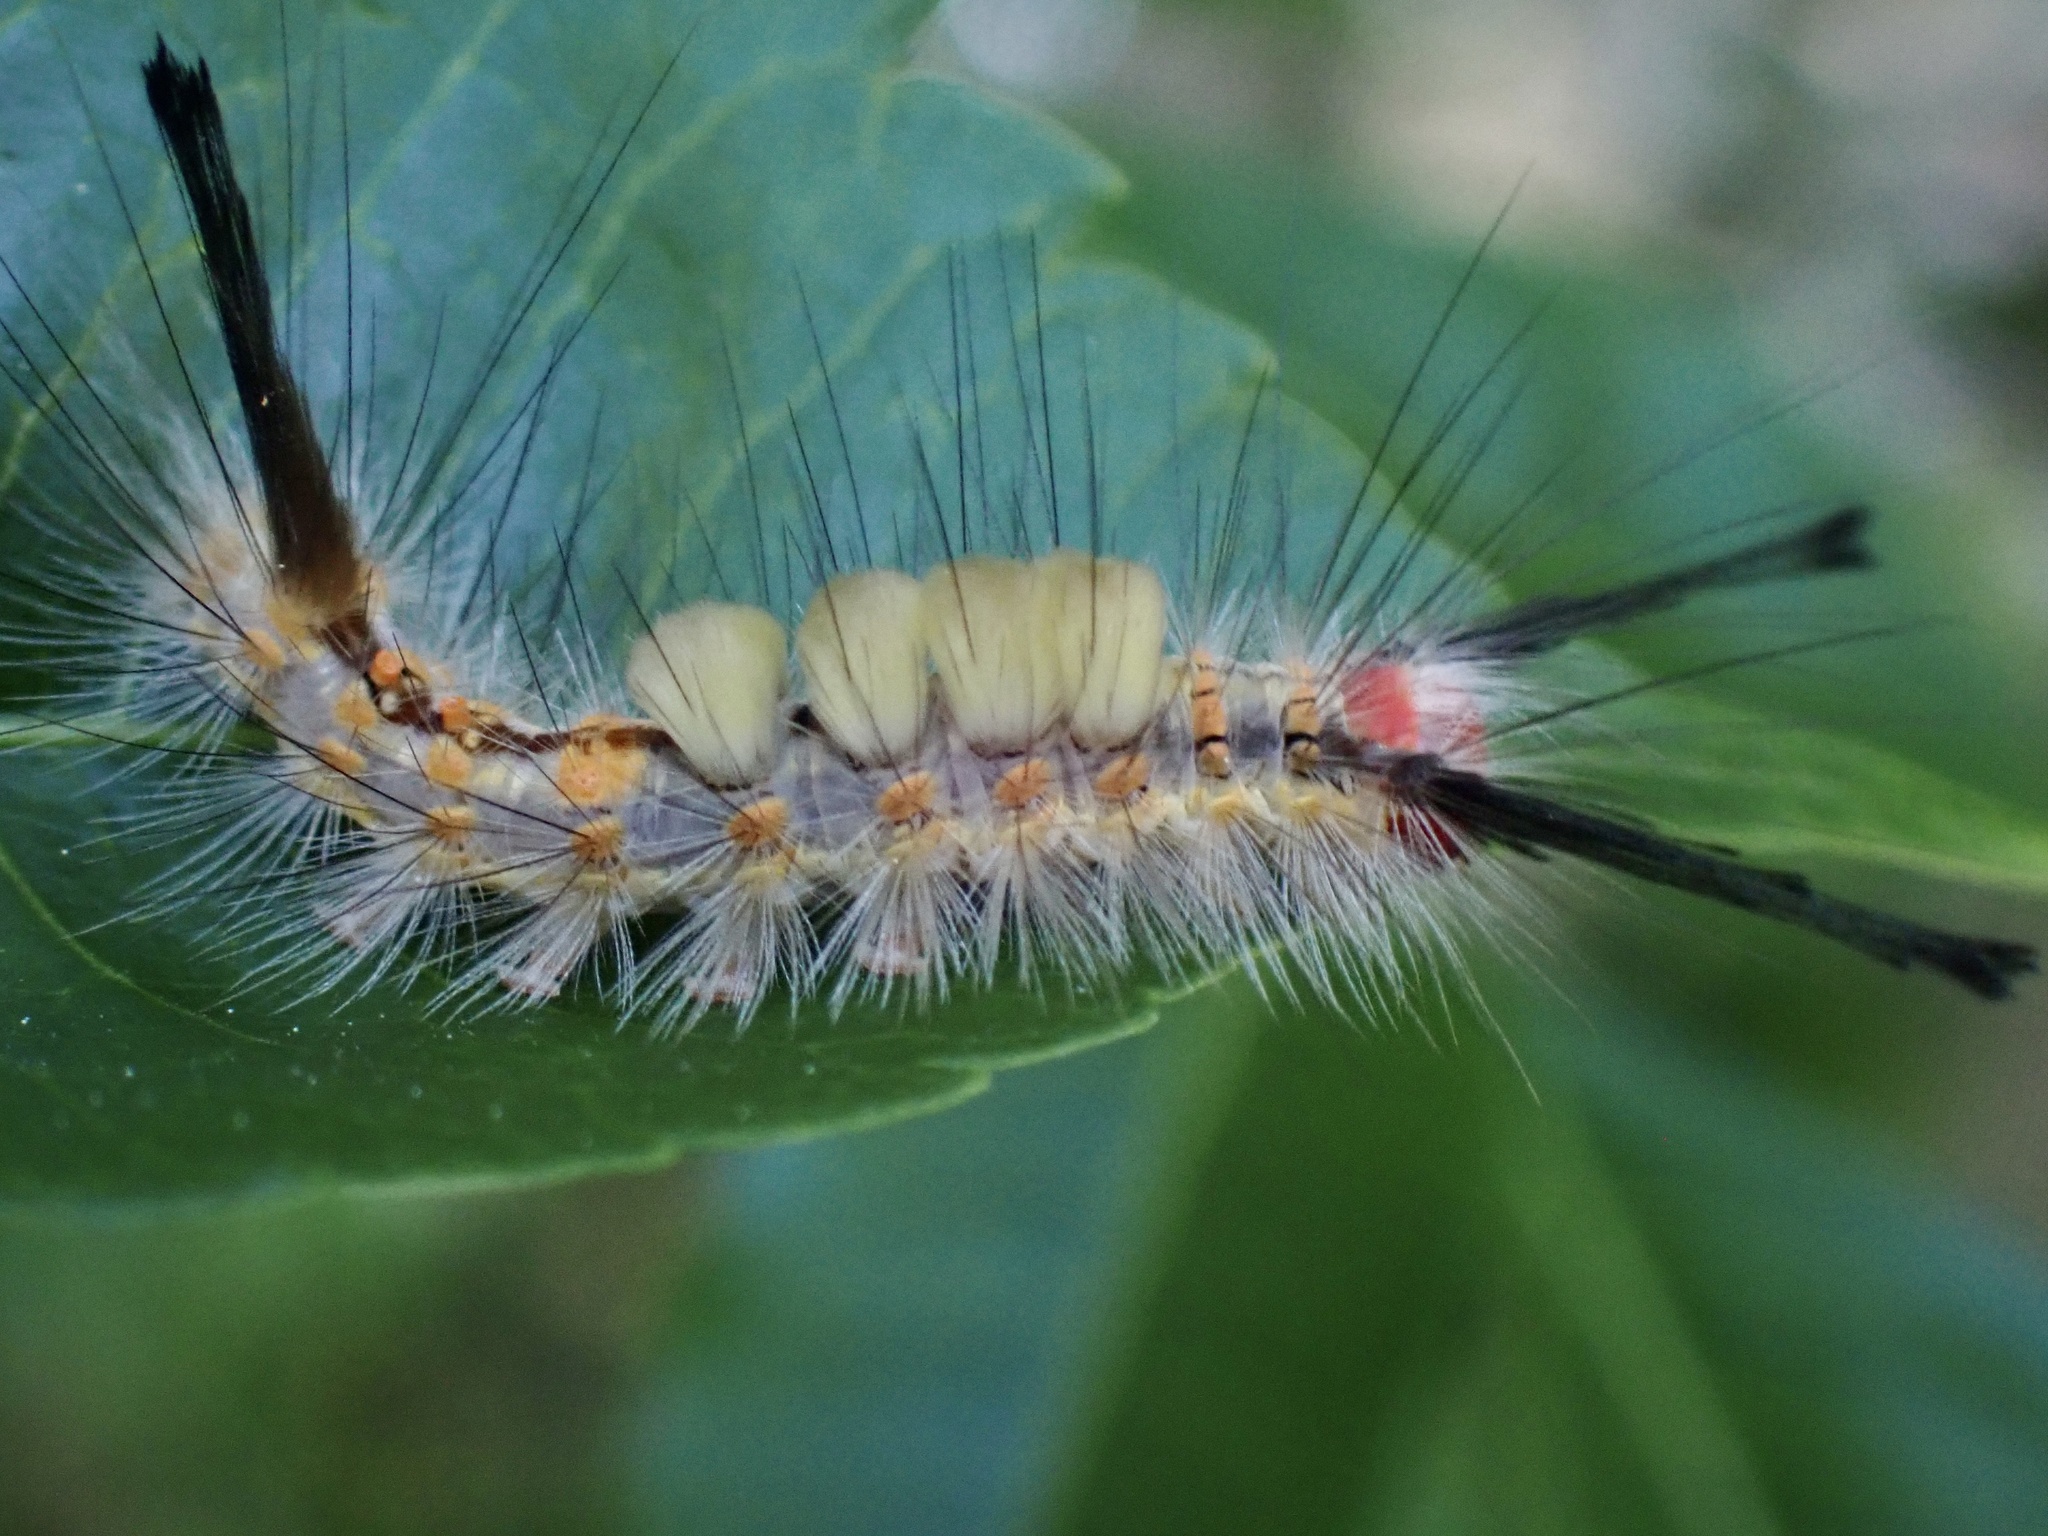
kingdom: Animalia
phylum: Arthropoda
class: Insecta
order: Lepidoptera
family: Erebidae
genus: Orgyia
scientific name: Orgyia detrita
